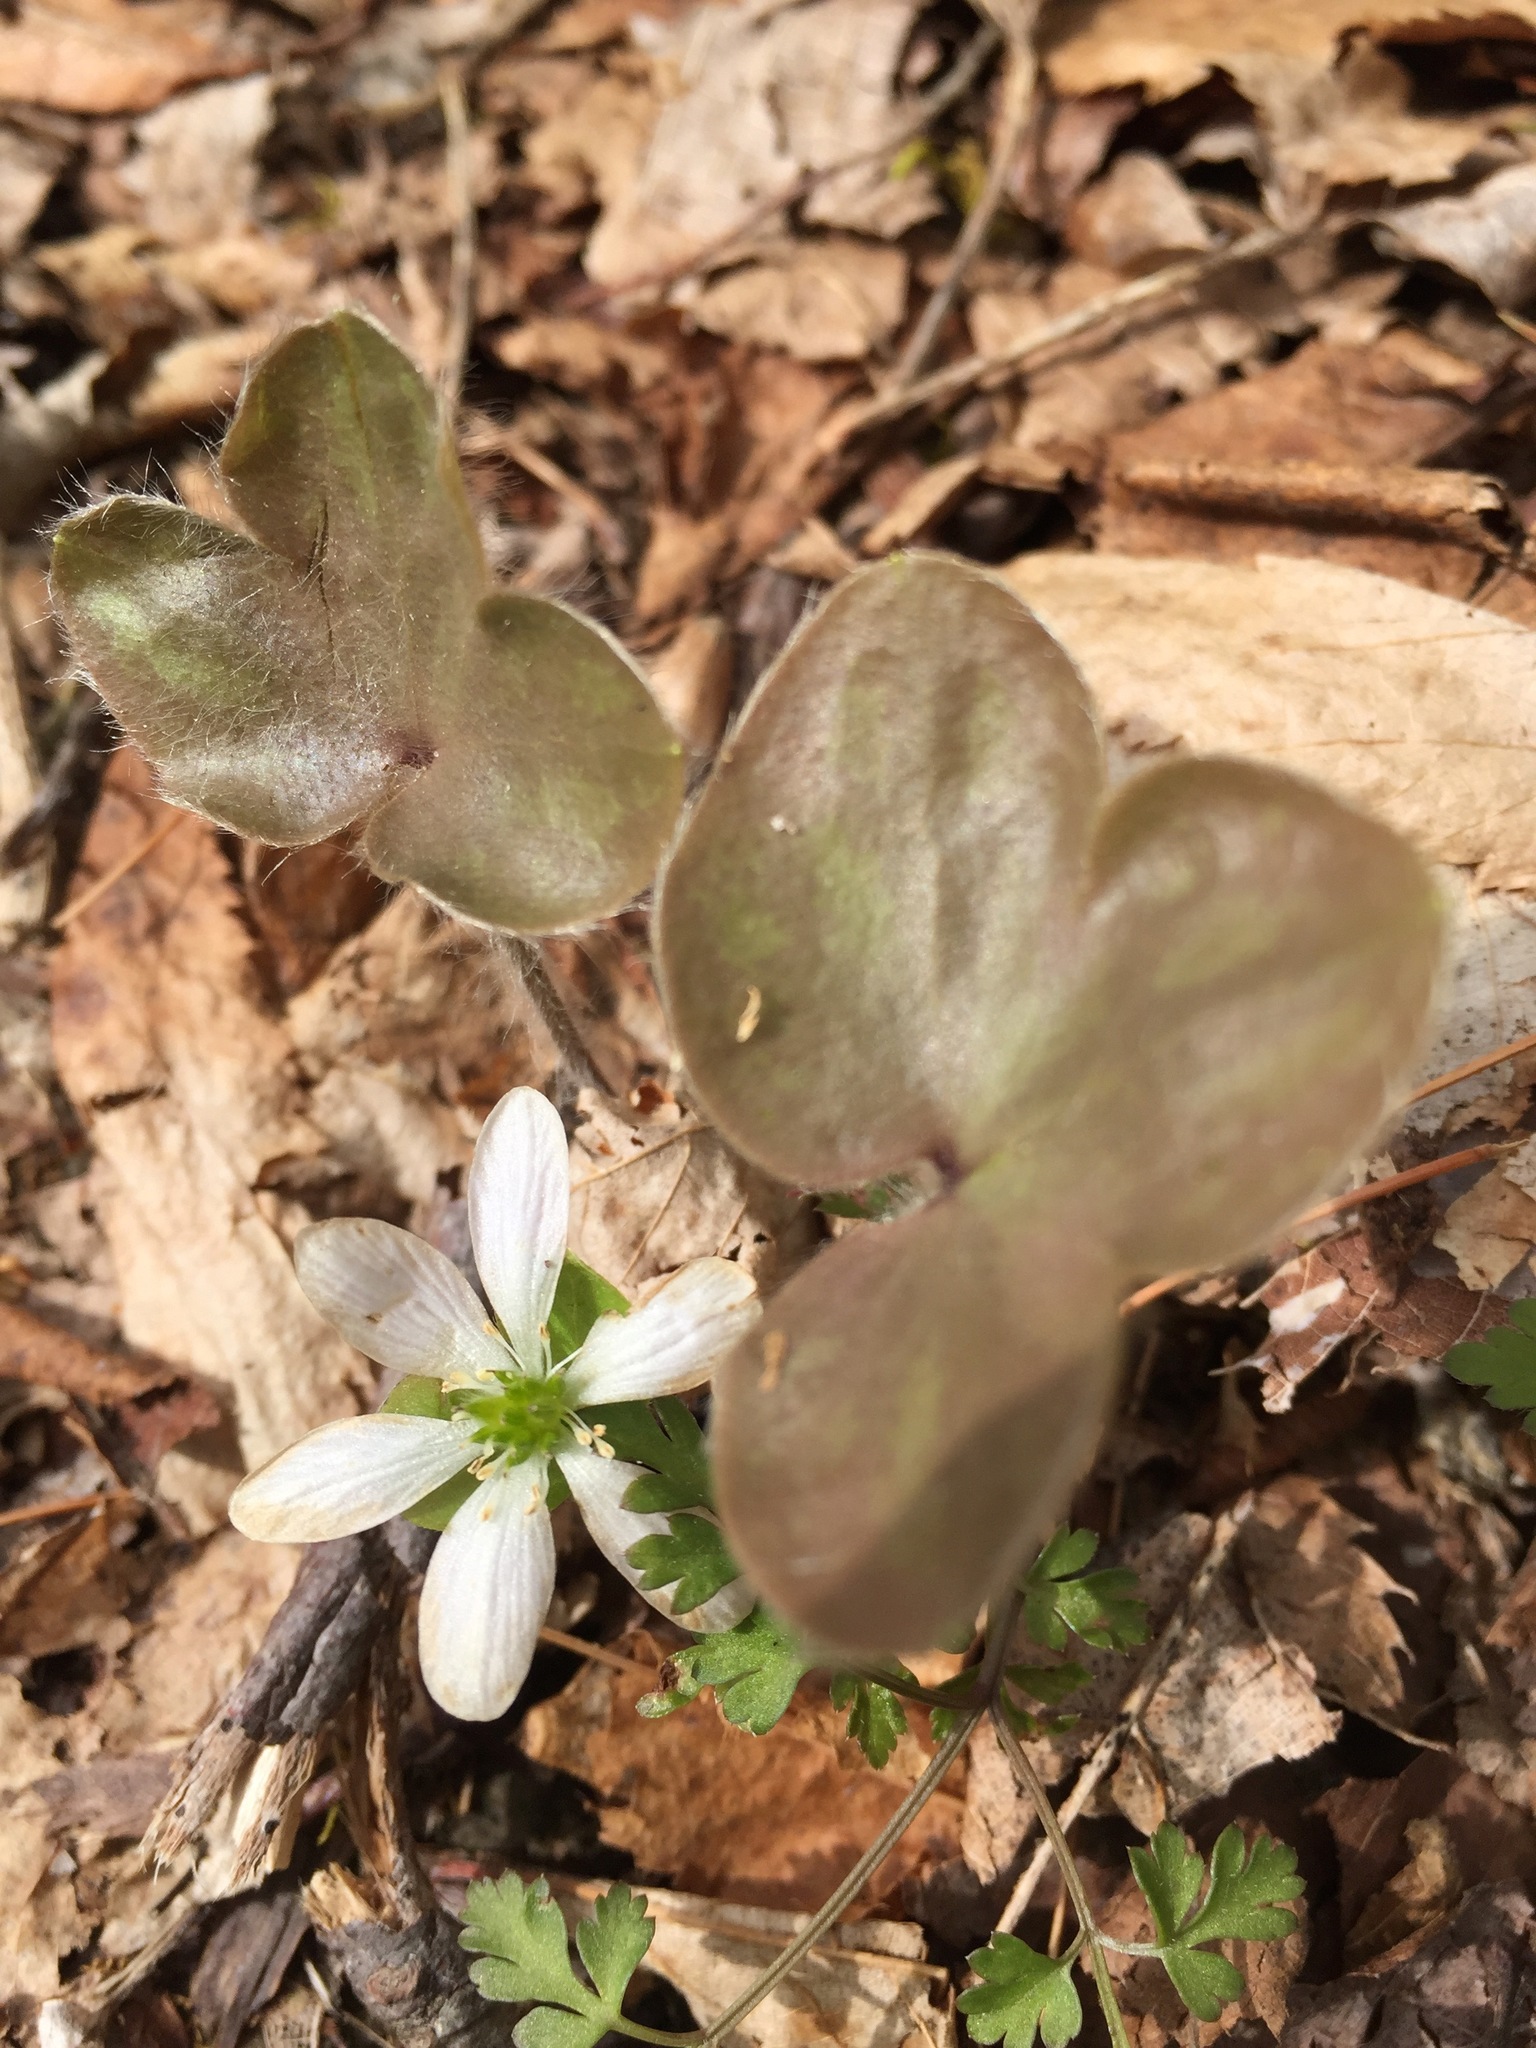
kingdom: Plantae
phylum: Tracheophyta
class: Magnoliopsida
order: Ranunculales
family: Ranunculaceae
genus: Hepatica
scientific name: Hepatica americana
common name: American hepatica
